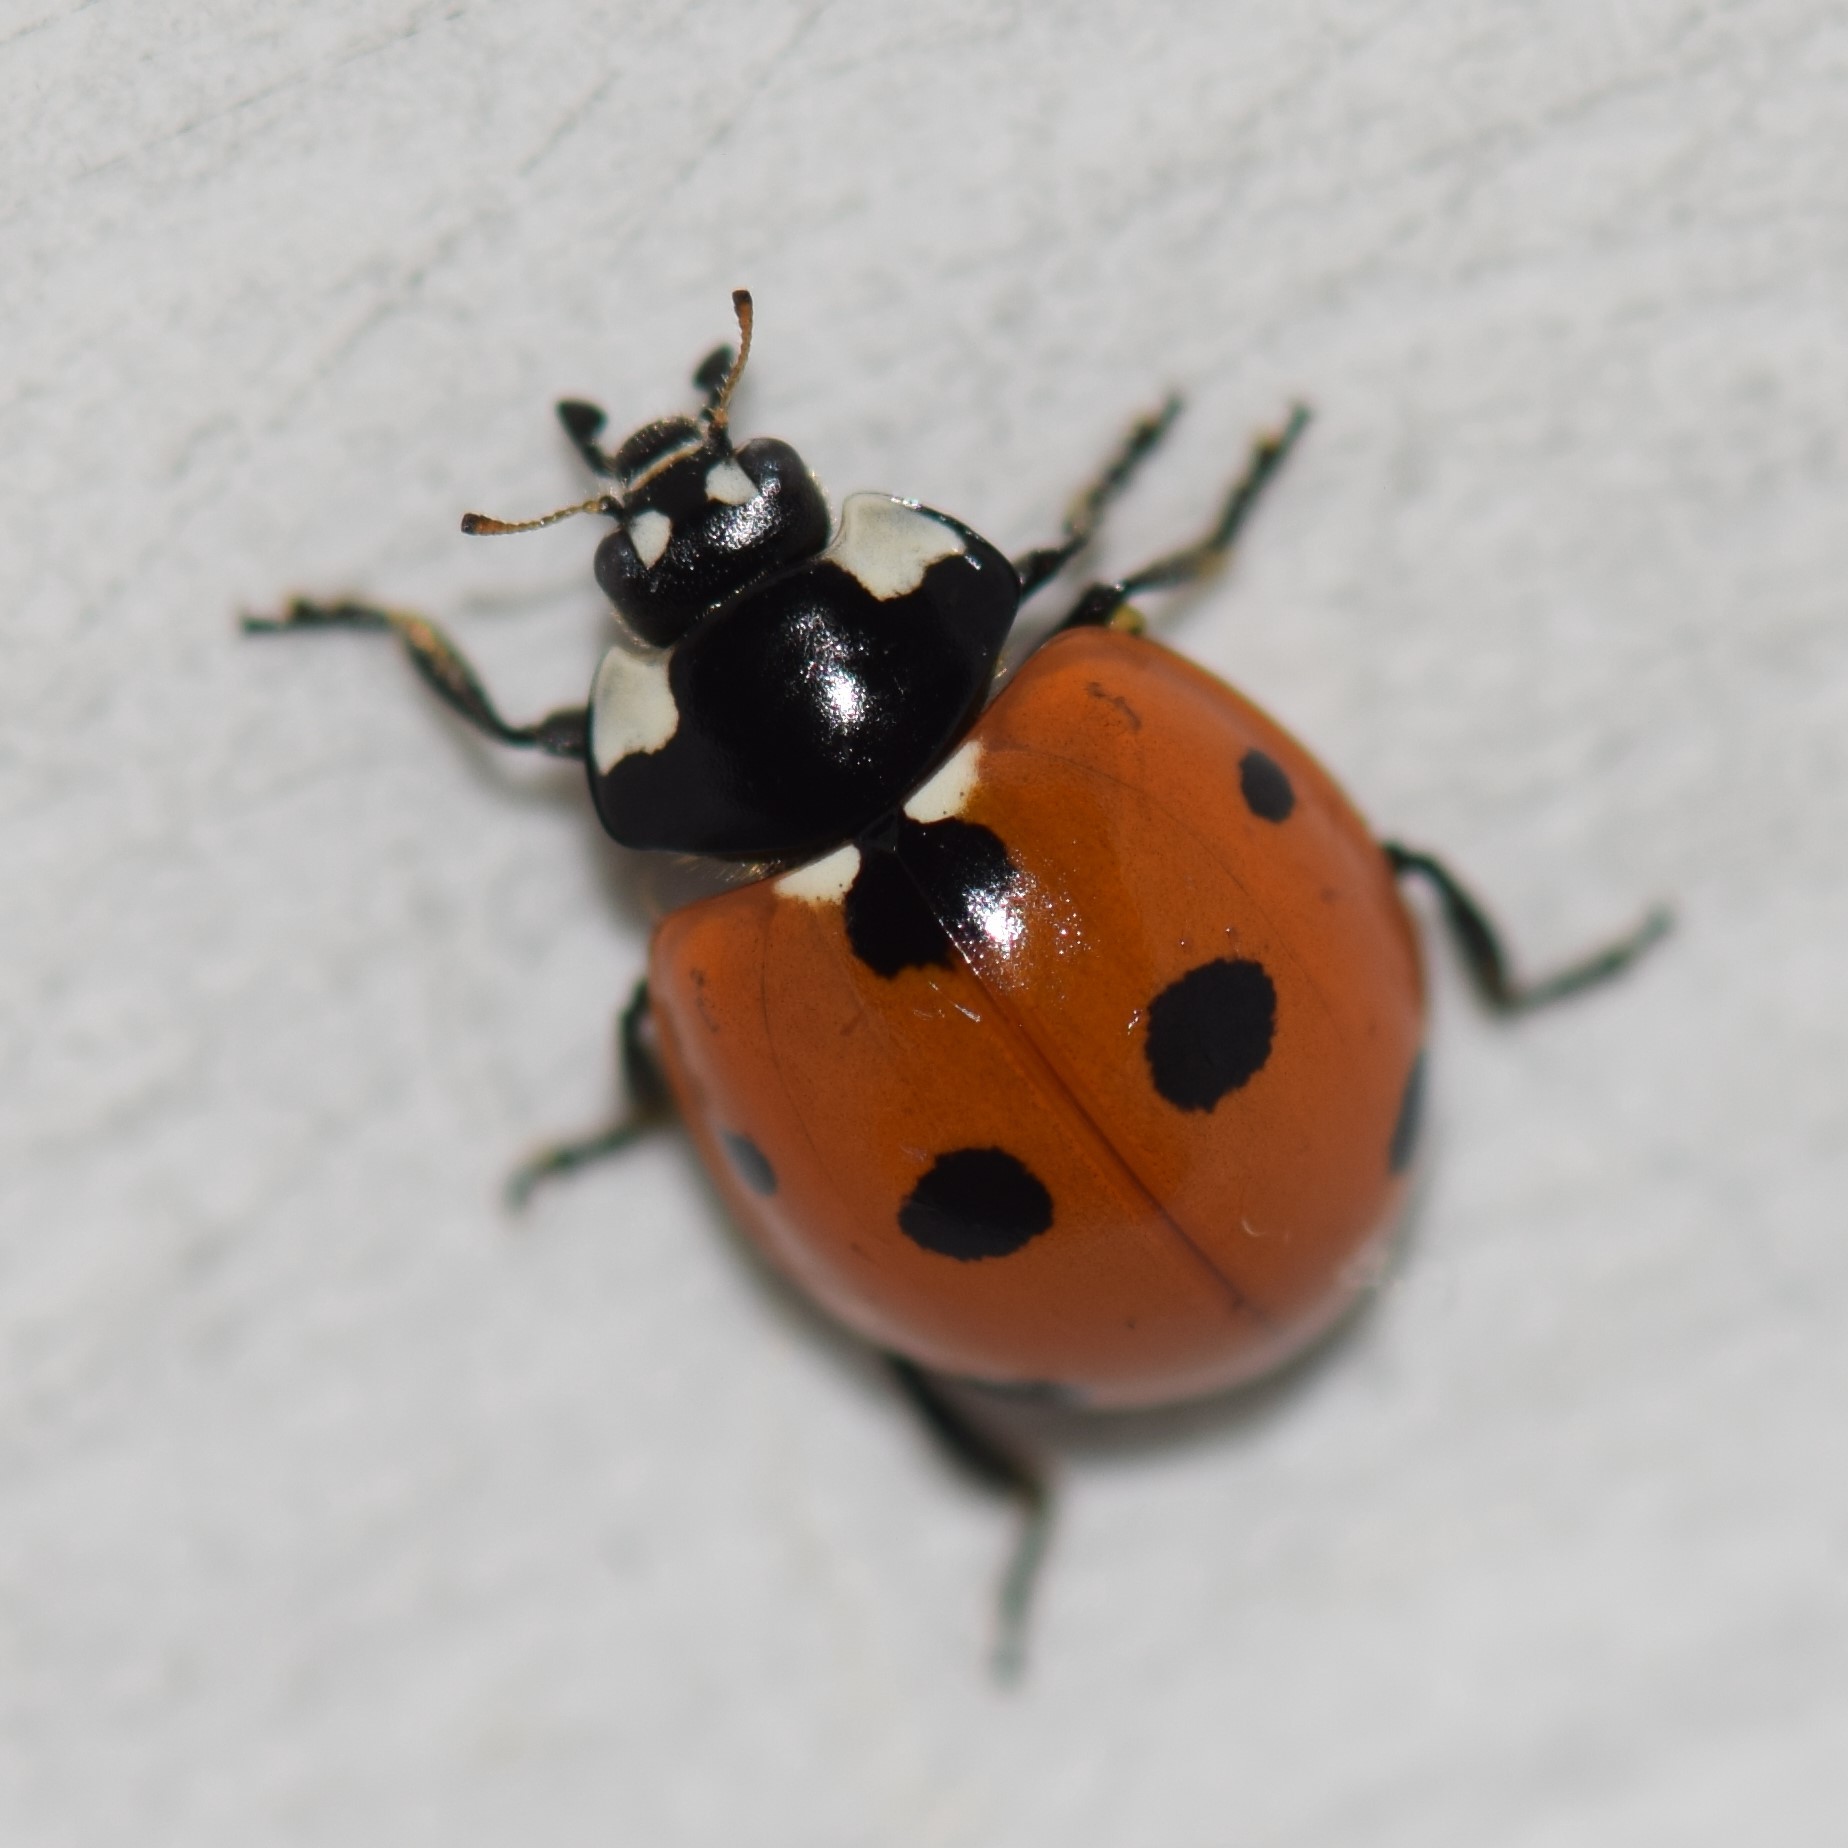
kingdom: Animalia
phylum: Arthropoda
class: Insecta
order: Coleoptera
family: Coccinellidae
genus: Coccinella
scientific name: Coccinella septempunctata
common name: Sevenspotted lady beetle
